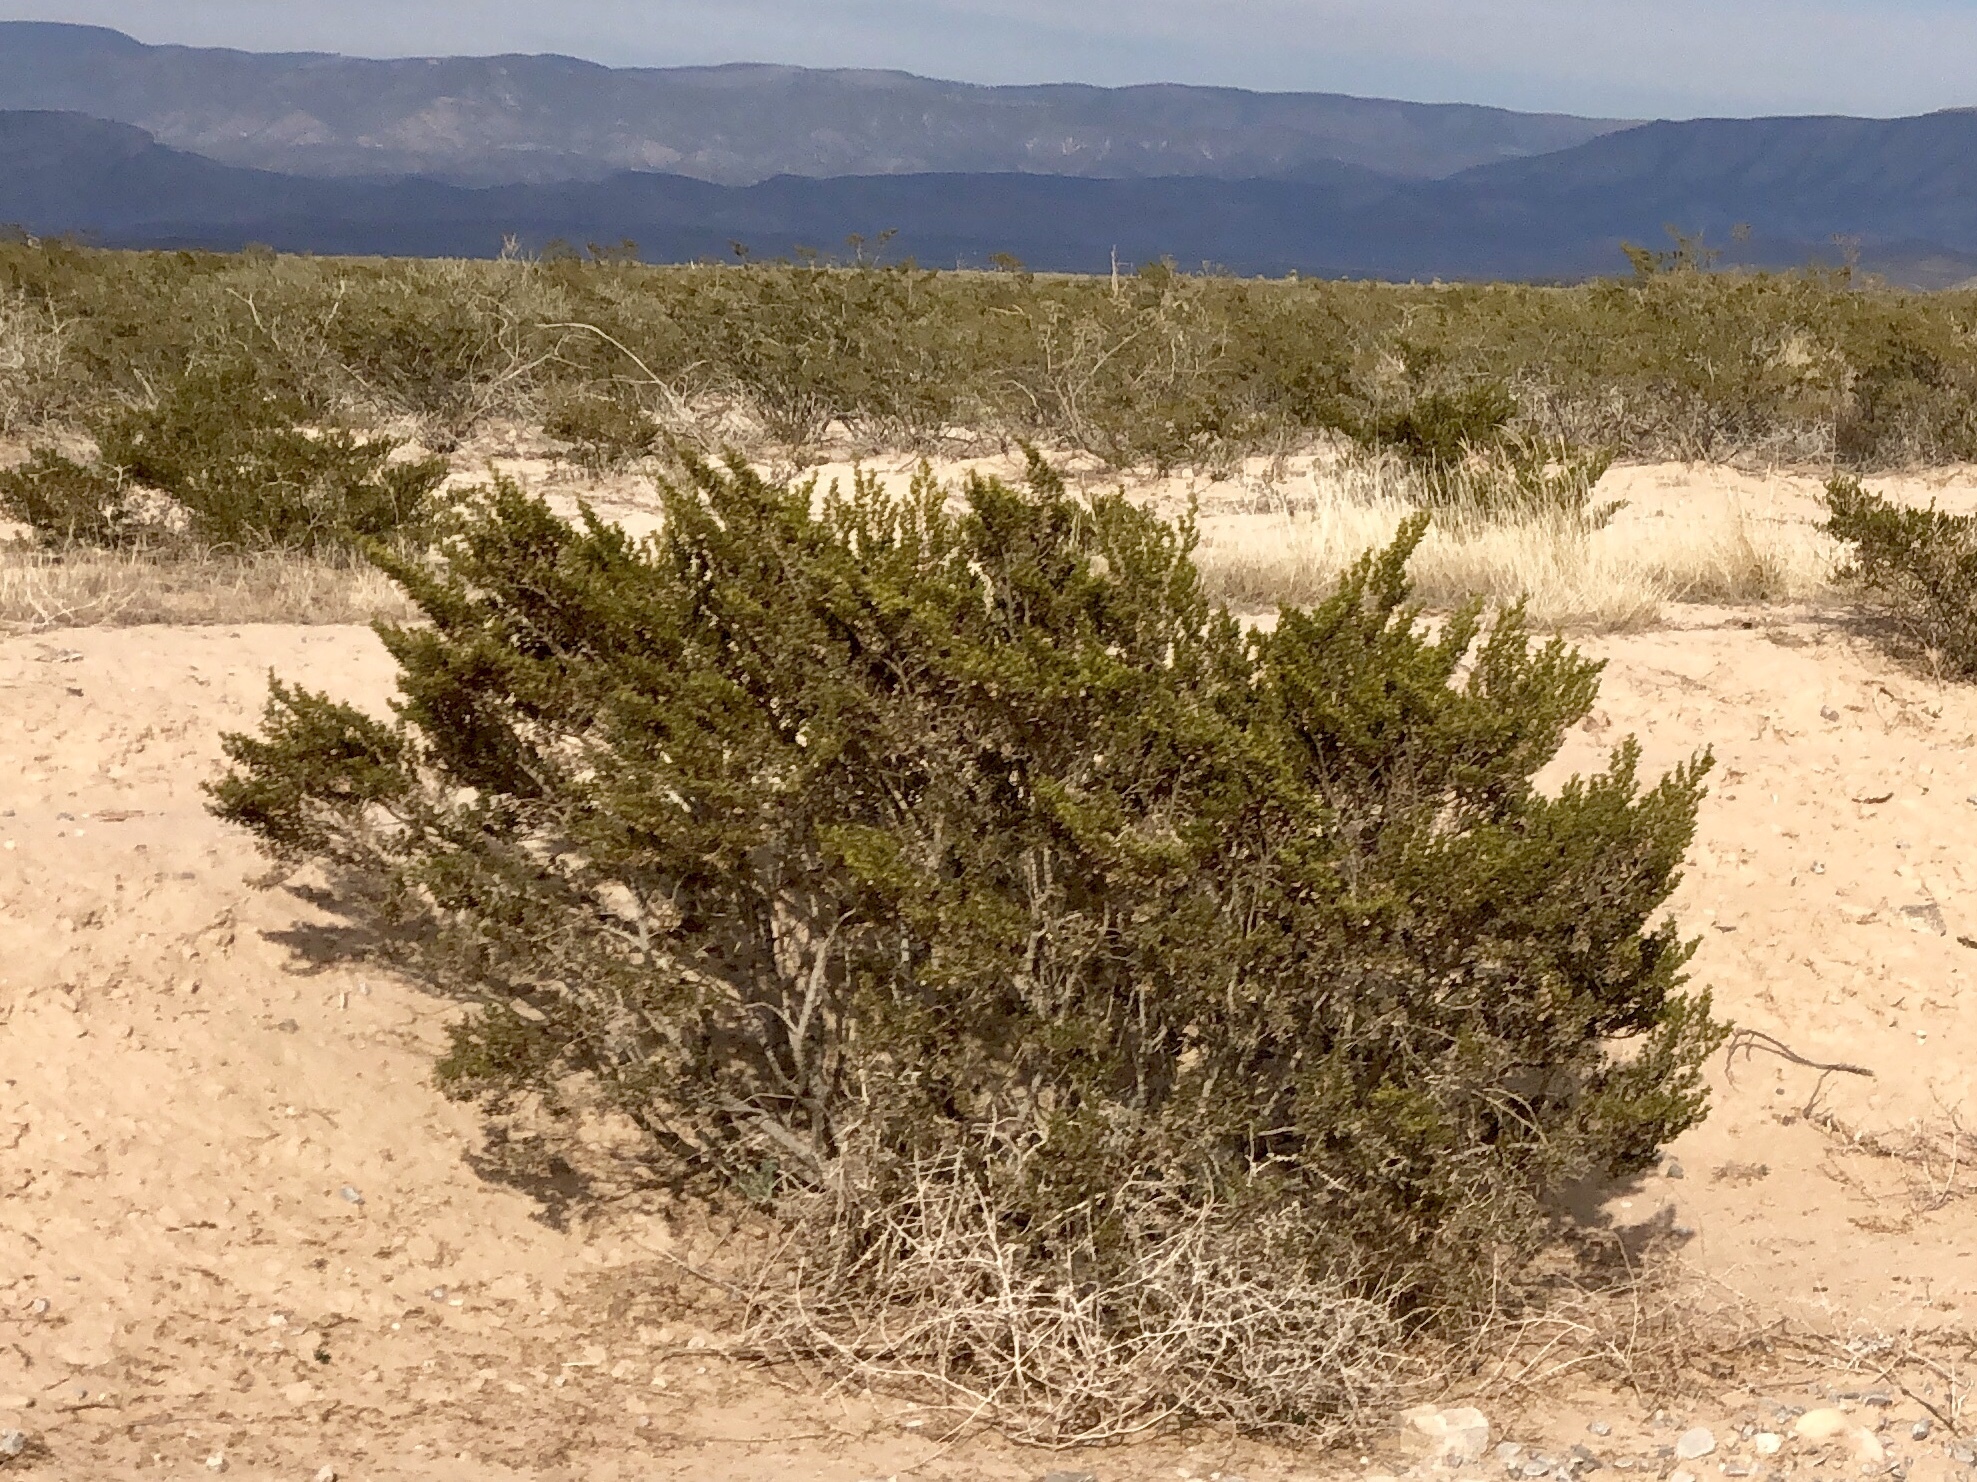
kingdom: Plantae
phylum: Tracheophyta
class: Magnoliopsida
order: Zygophyllales
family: Zygophyllaceae
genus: Larrea
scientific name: Larrea tridentata
